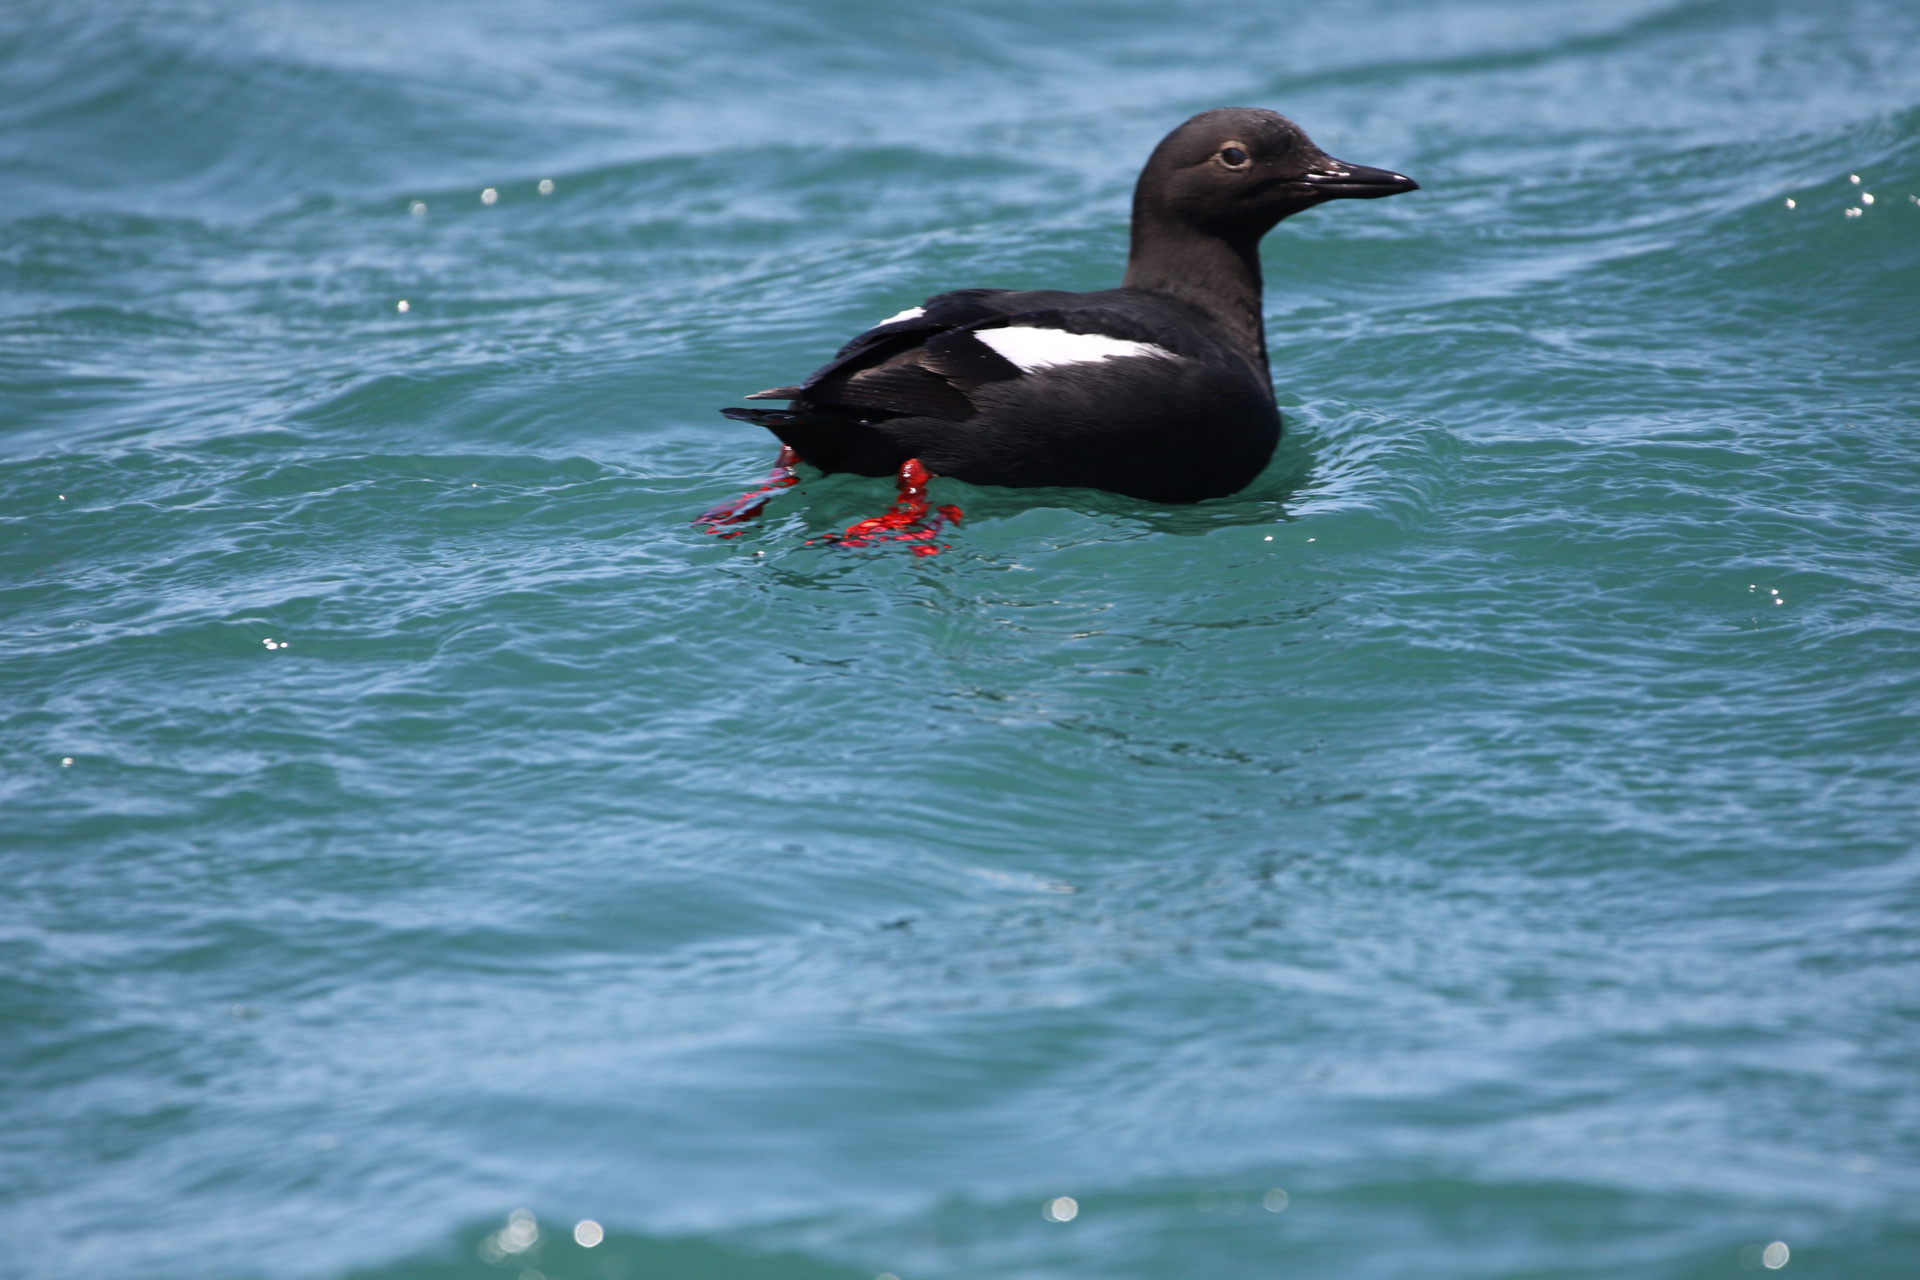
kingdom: Animalia
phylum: Chordata
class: Aves
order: Charadriiformes
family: Alcidae
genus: Cepphus
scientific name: Cepphus columba
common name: Pigeon guillemot
